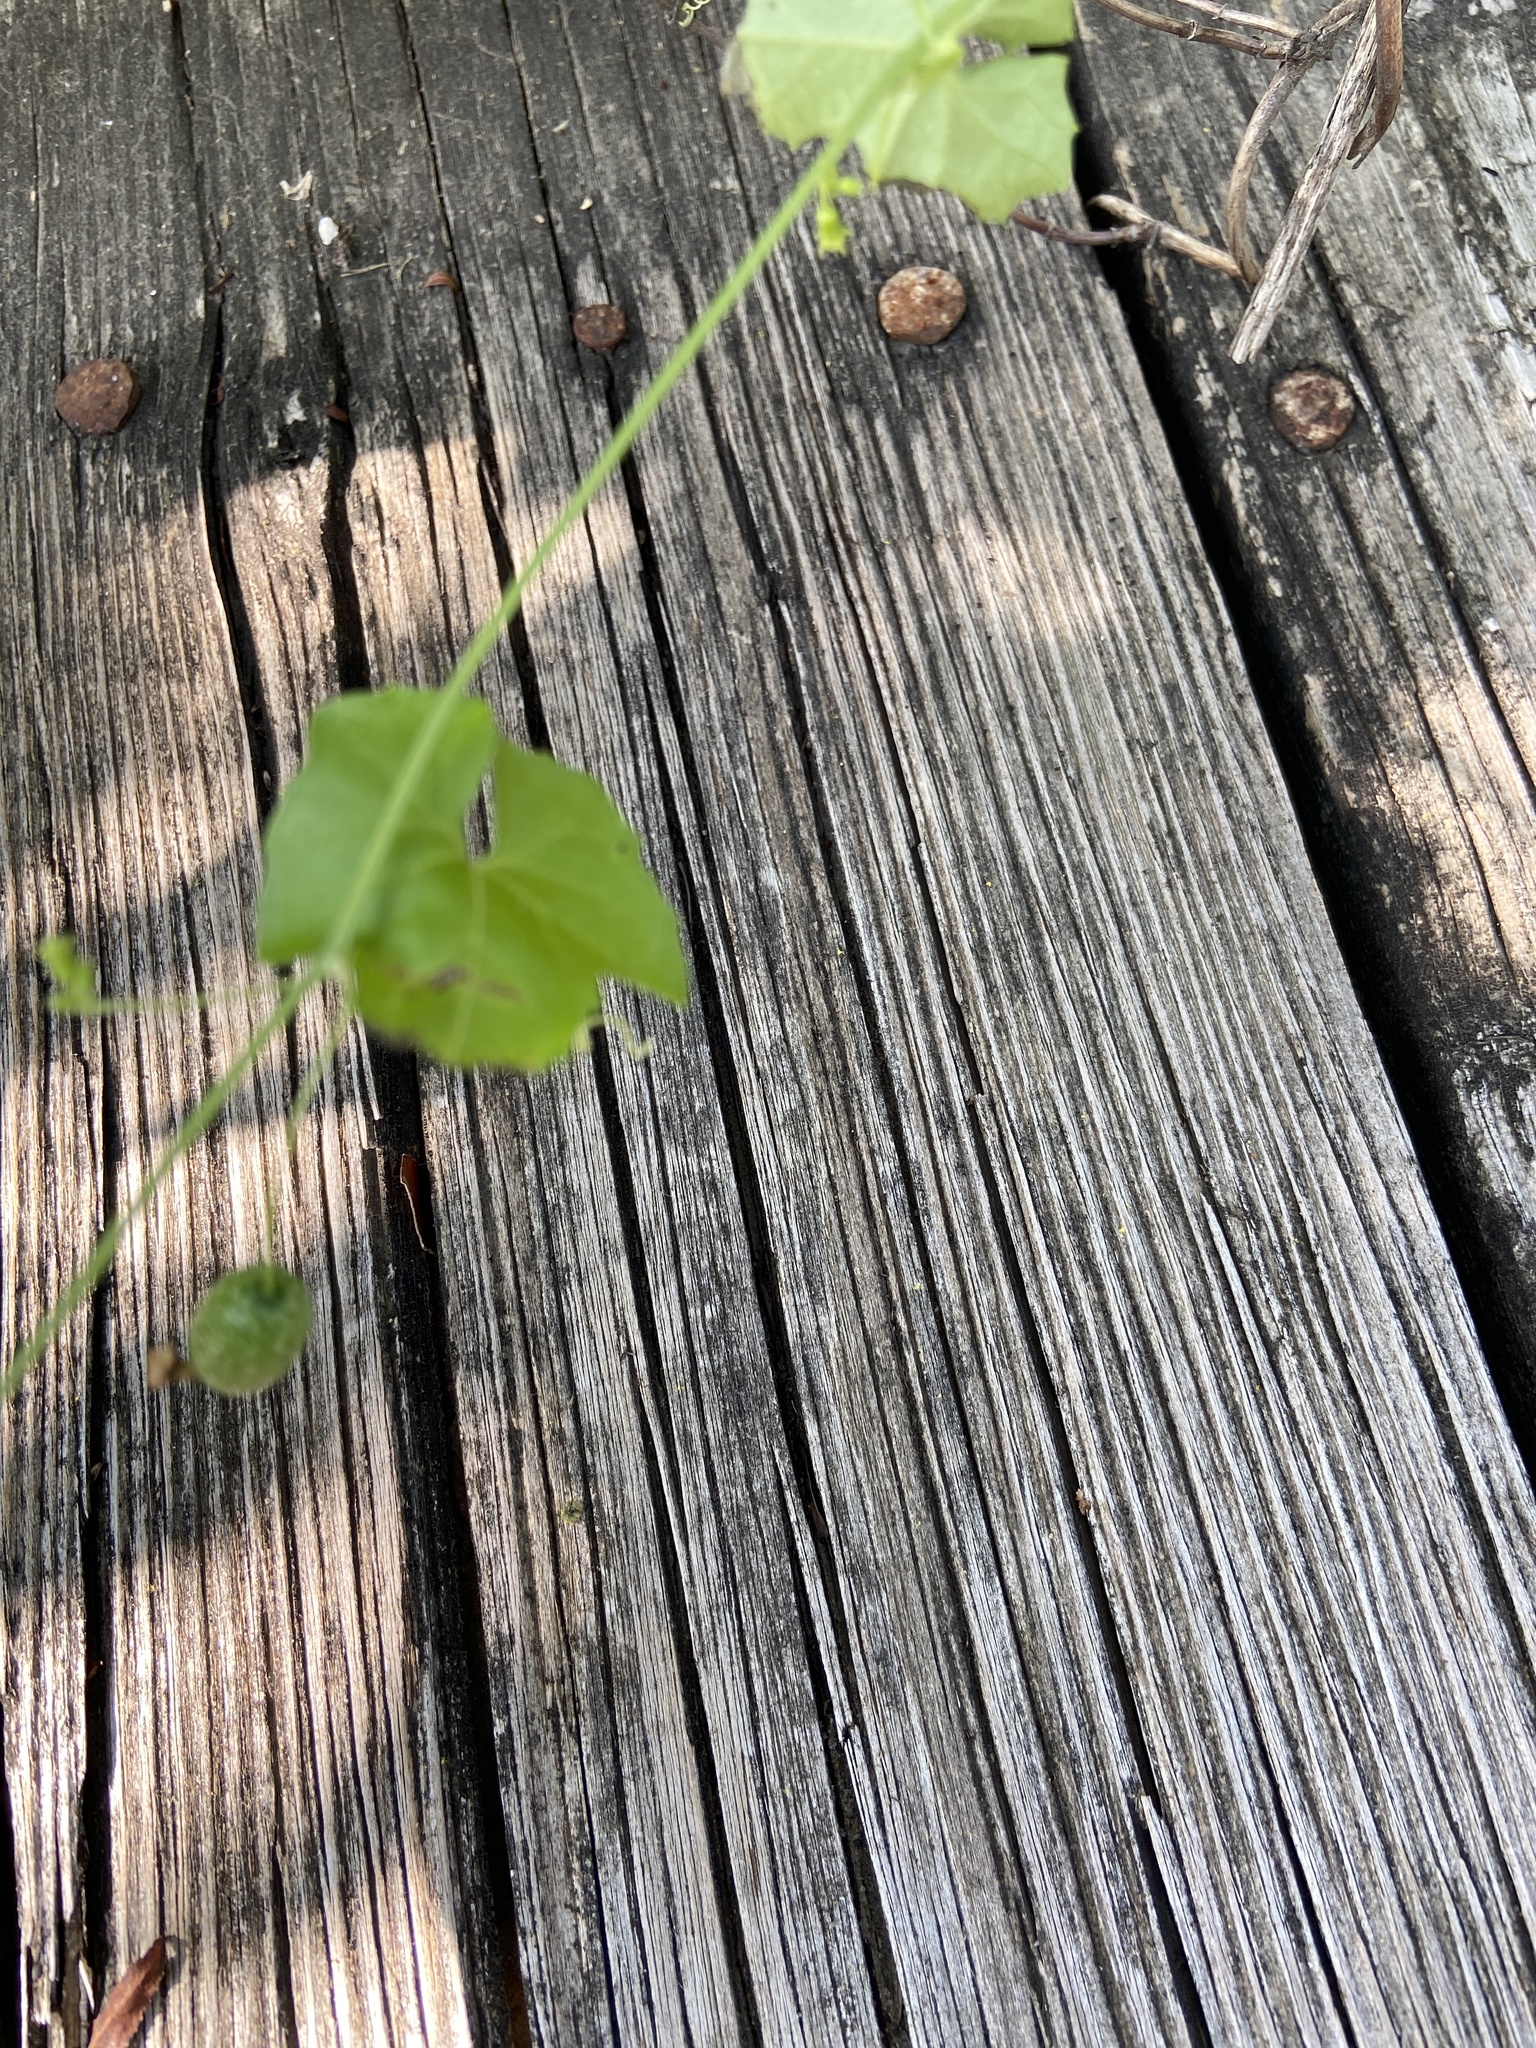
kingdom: Plantae
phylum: Tracheophyta
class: Magnoliopsida
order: Cucurbitales
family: Cucurbitaceae
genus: Melothria
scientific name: Melothria pendula
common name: Creeping-cucumber
